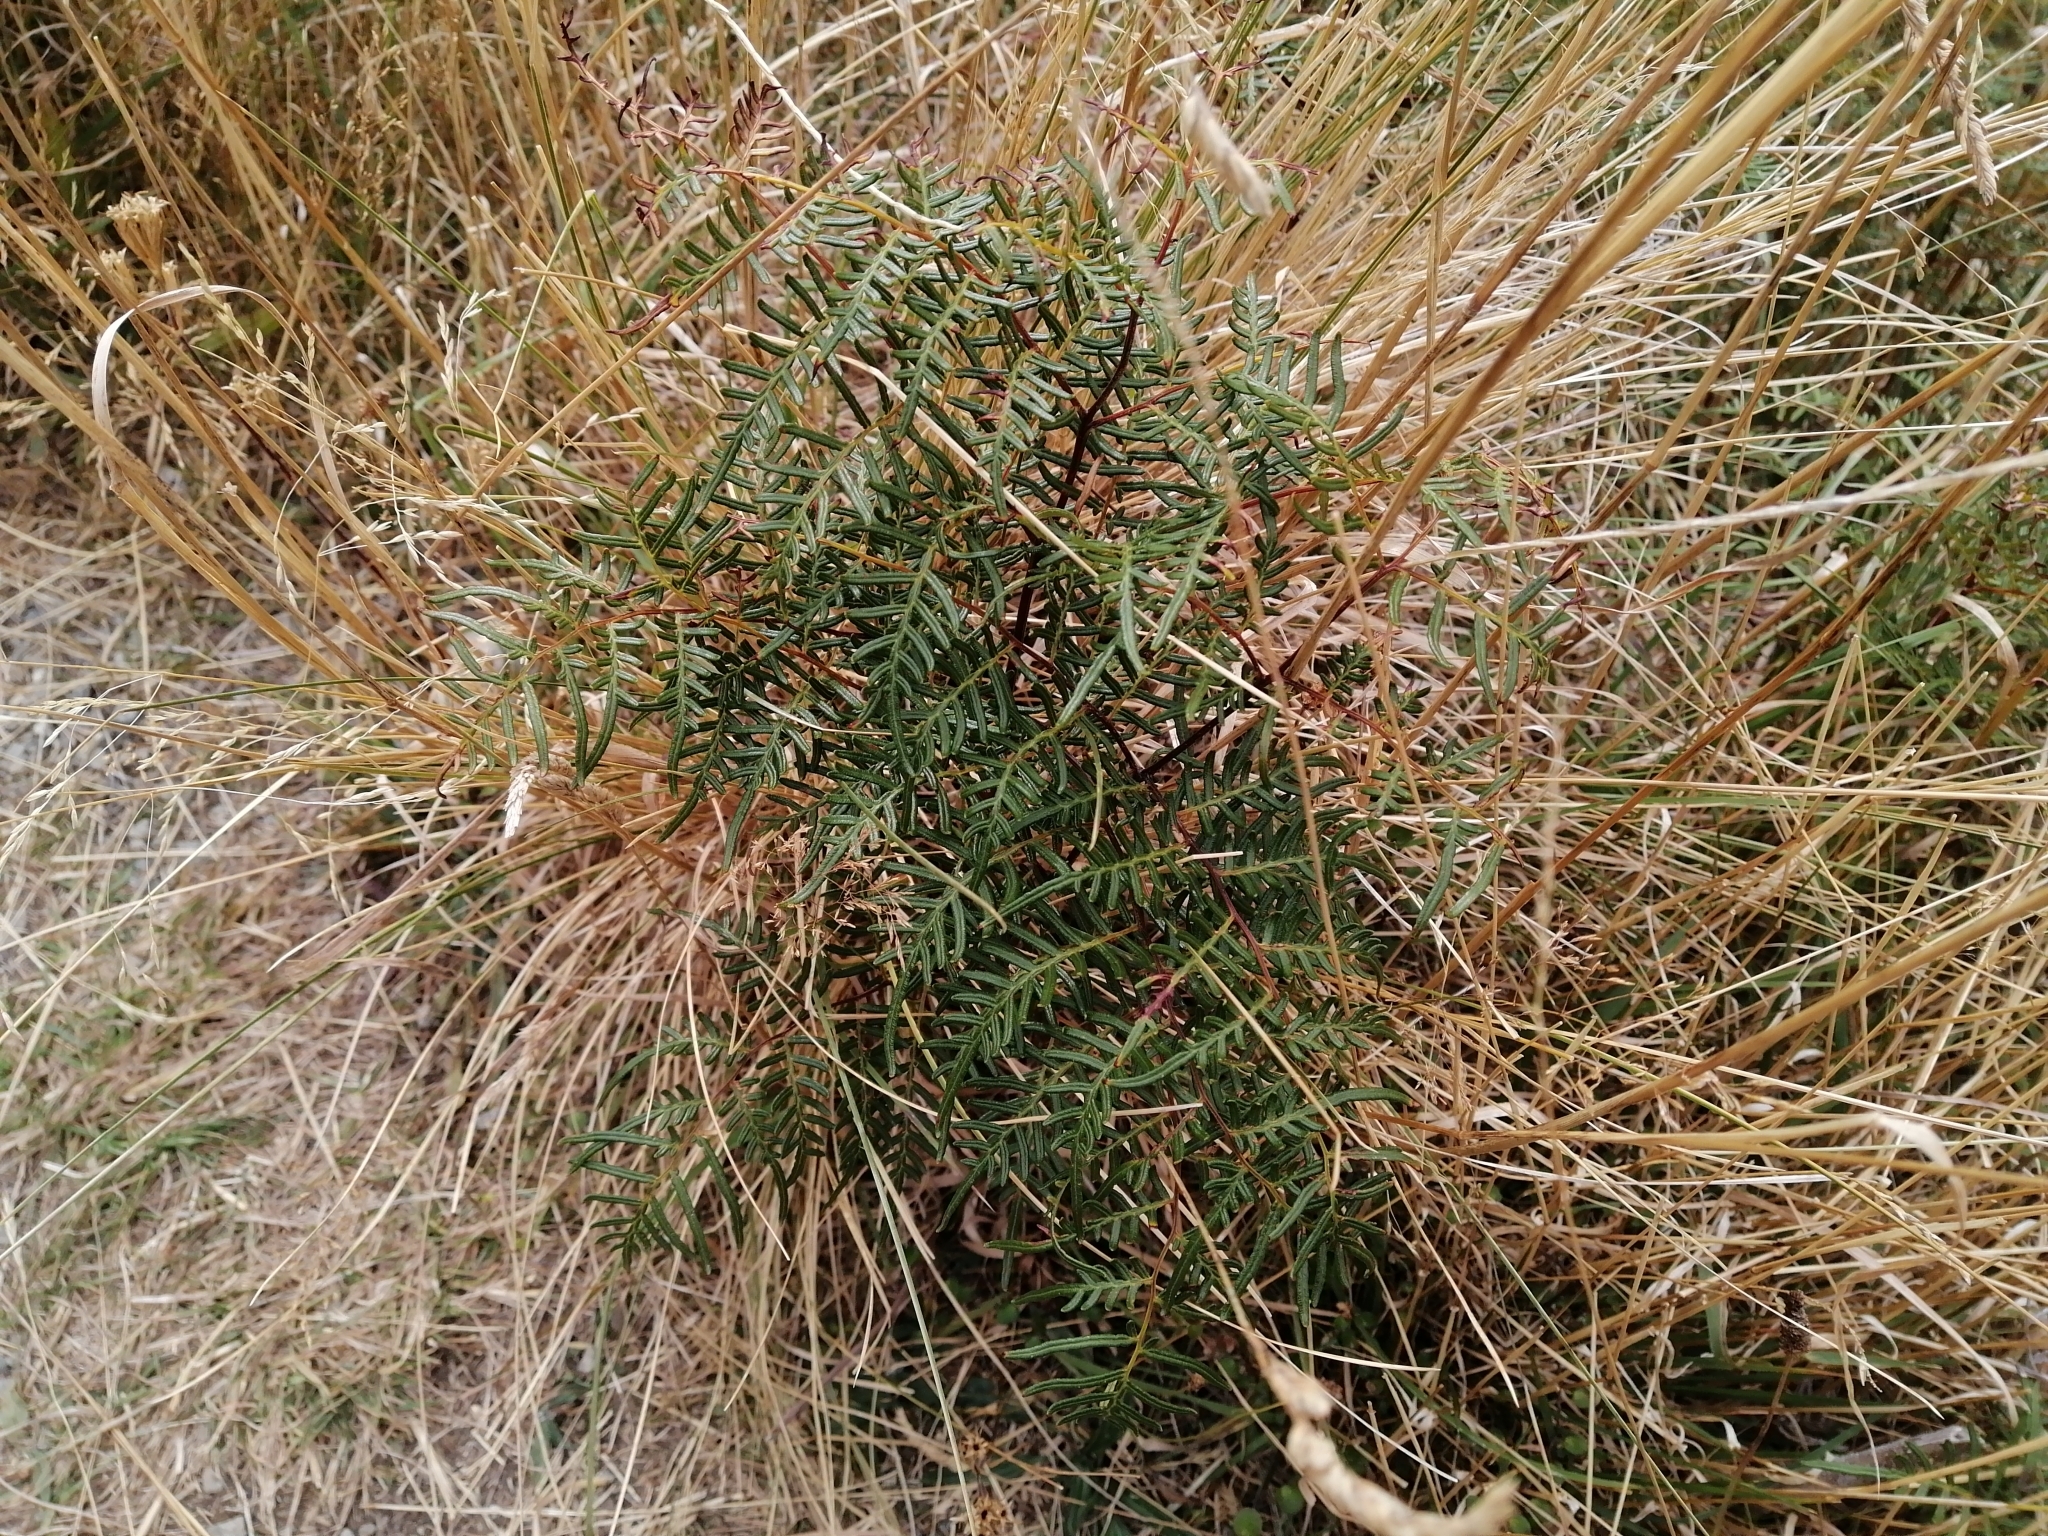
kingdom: Plantae
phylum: Tracheophyta
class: Polypodiopsida
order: Polypodiales
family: Dennstaedtiaceae
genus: Pteridium
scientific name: Pteridium esculentum
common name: Bracken fern
